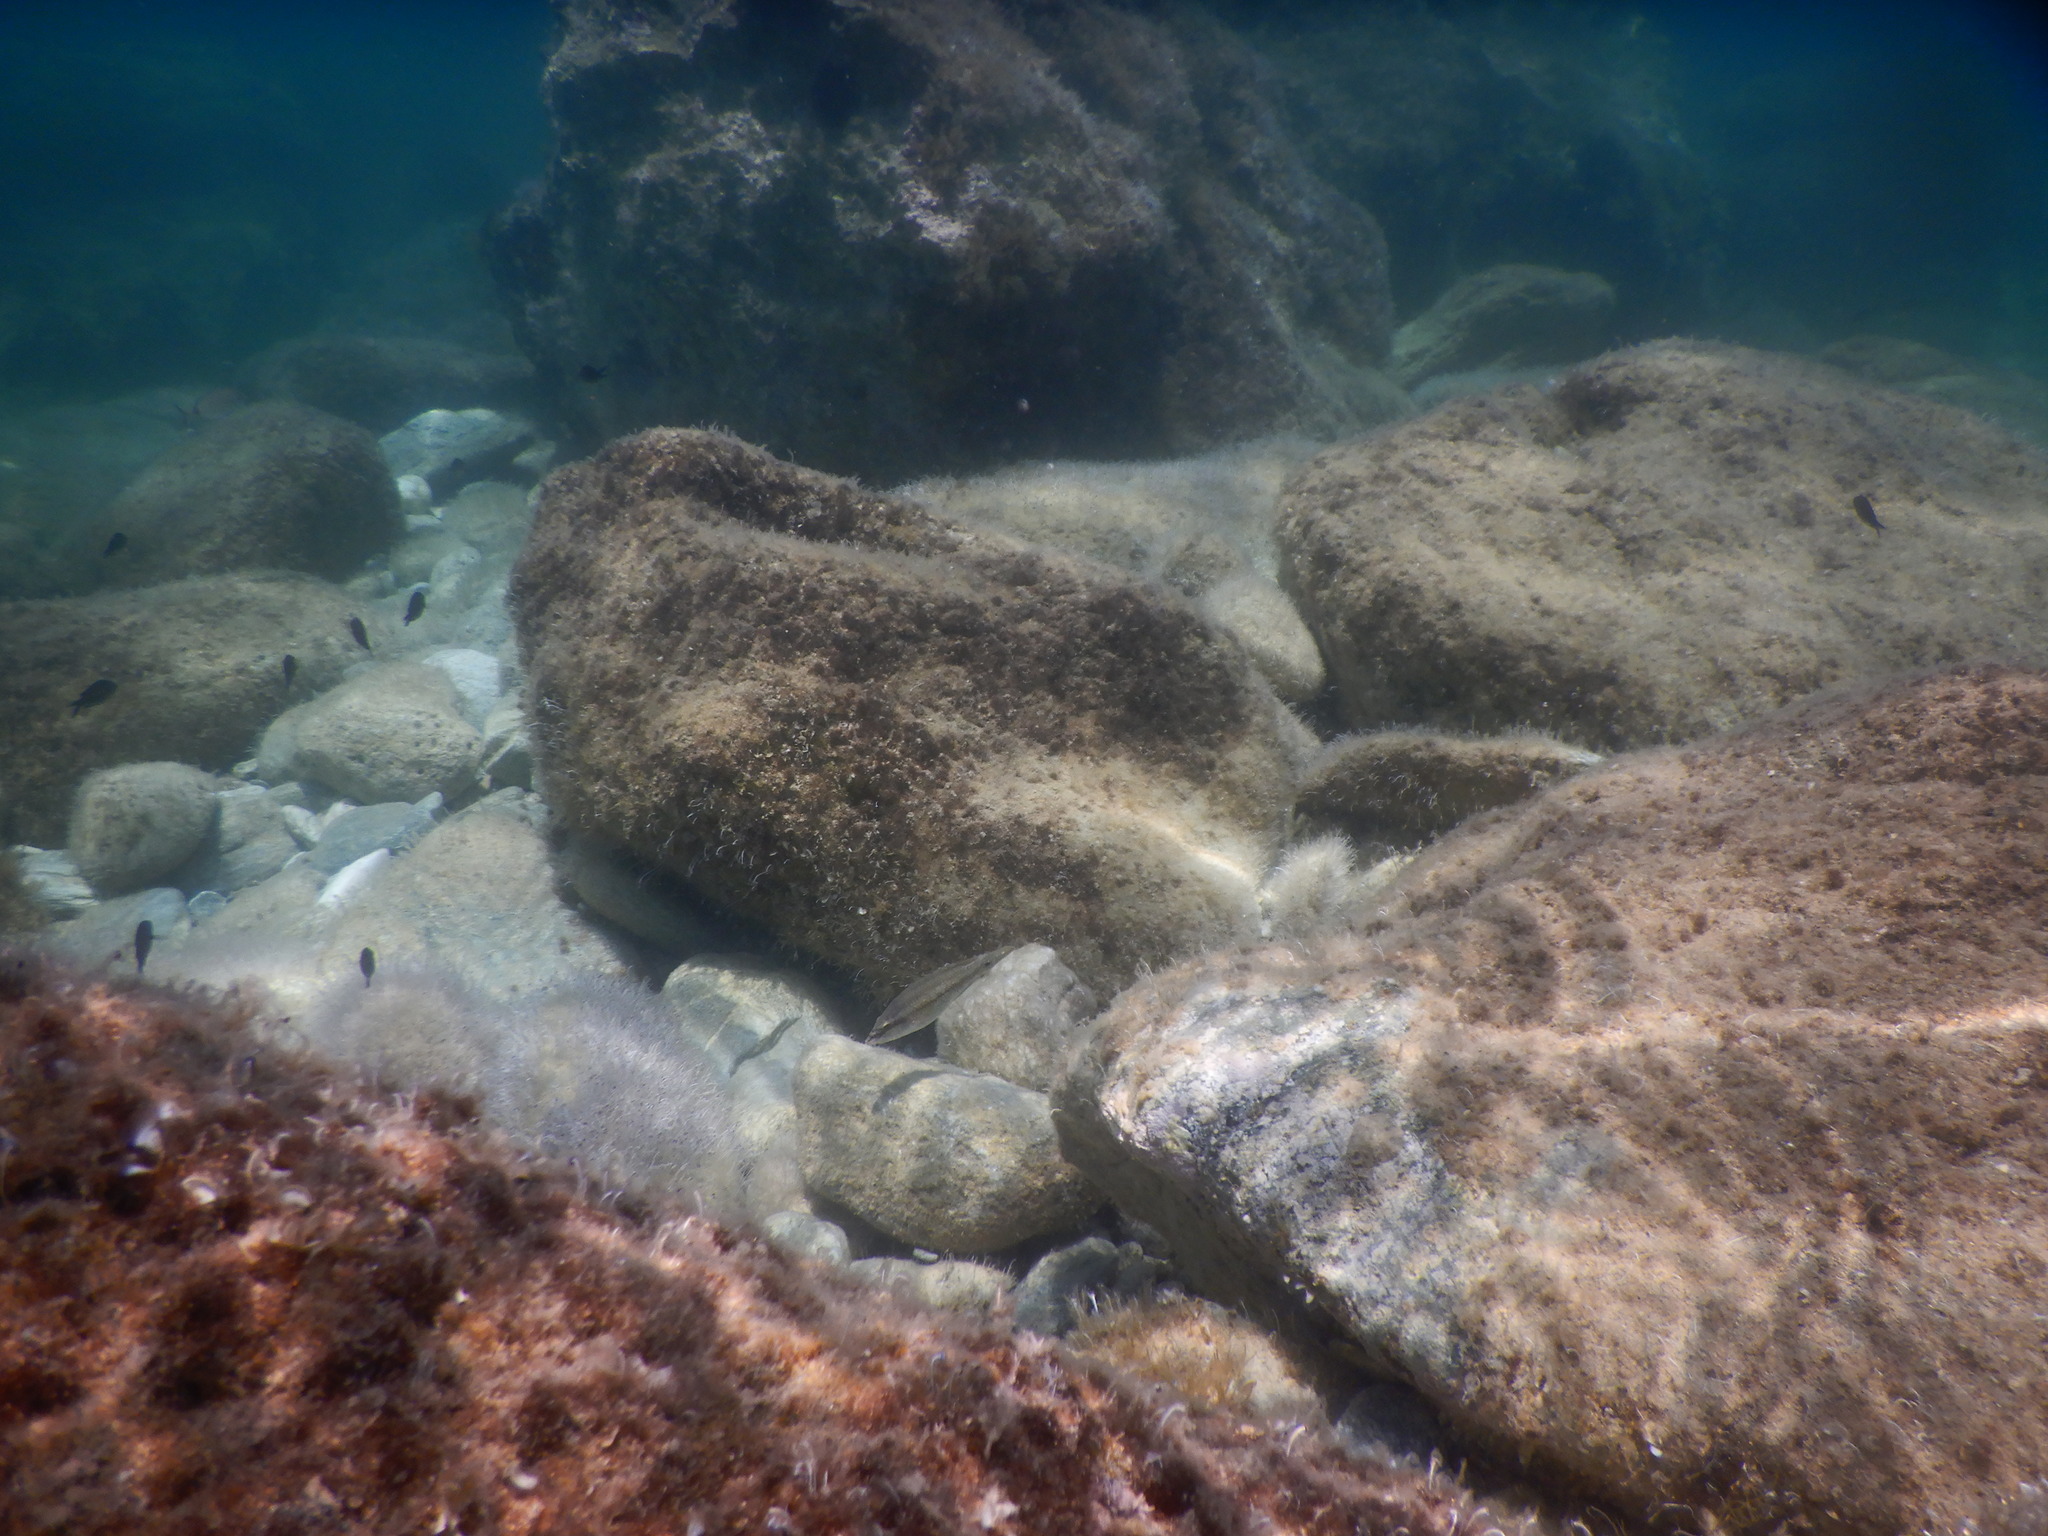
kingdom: Animalia
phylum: Chordata
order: Perciformes
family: Labridae
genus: Symphodus
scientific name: Symphodus tinca
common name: Peacock wrasse
